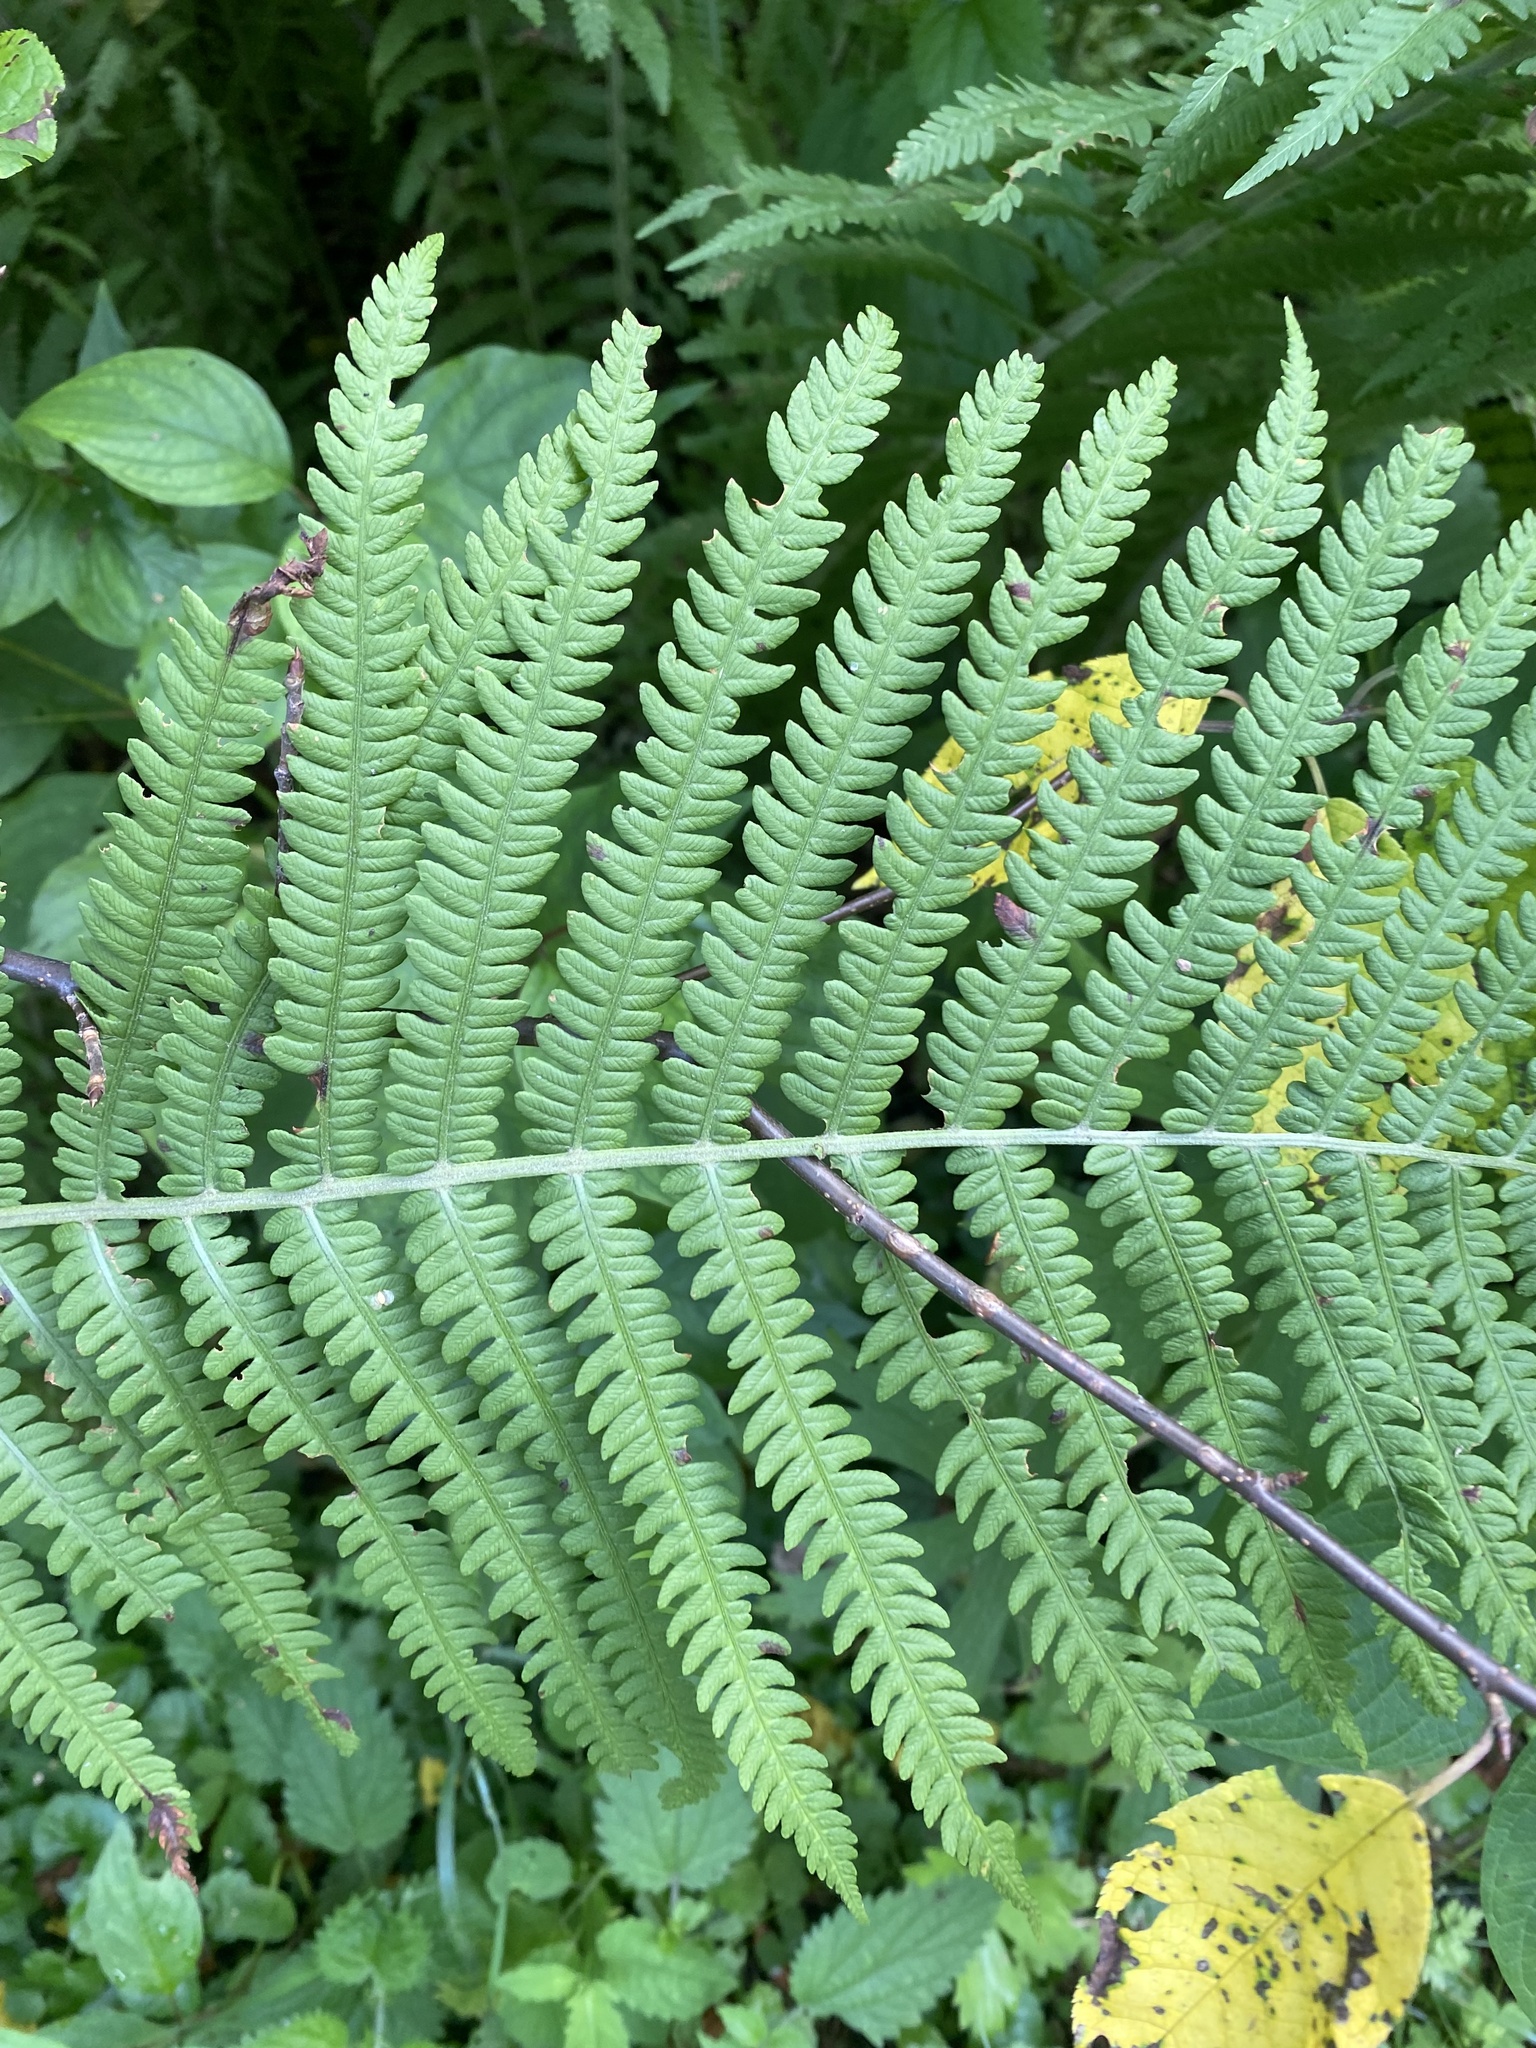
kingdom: Plantae
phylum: Tracheophyta
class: Polypodiopsida
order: Polypodiales
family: Onocleaceae
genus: Matteuccia
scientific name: Matteuccia struthiopteris
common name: Ostrich fern
